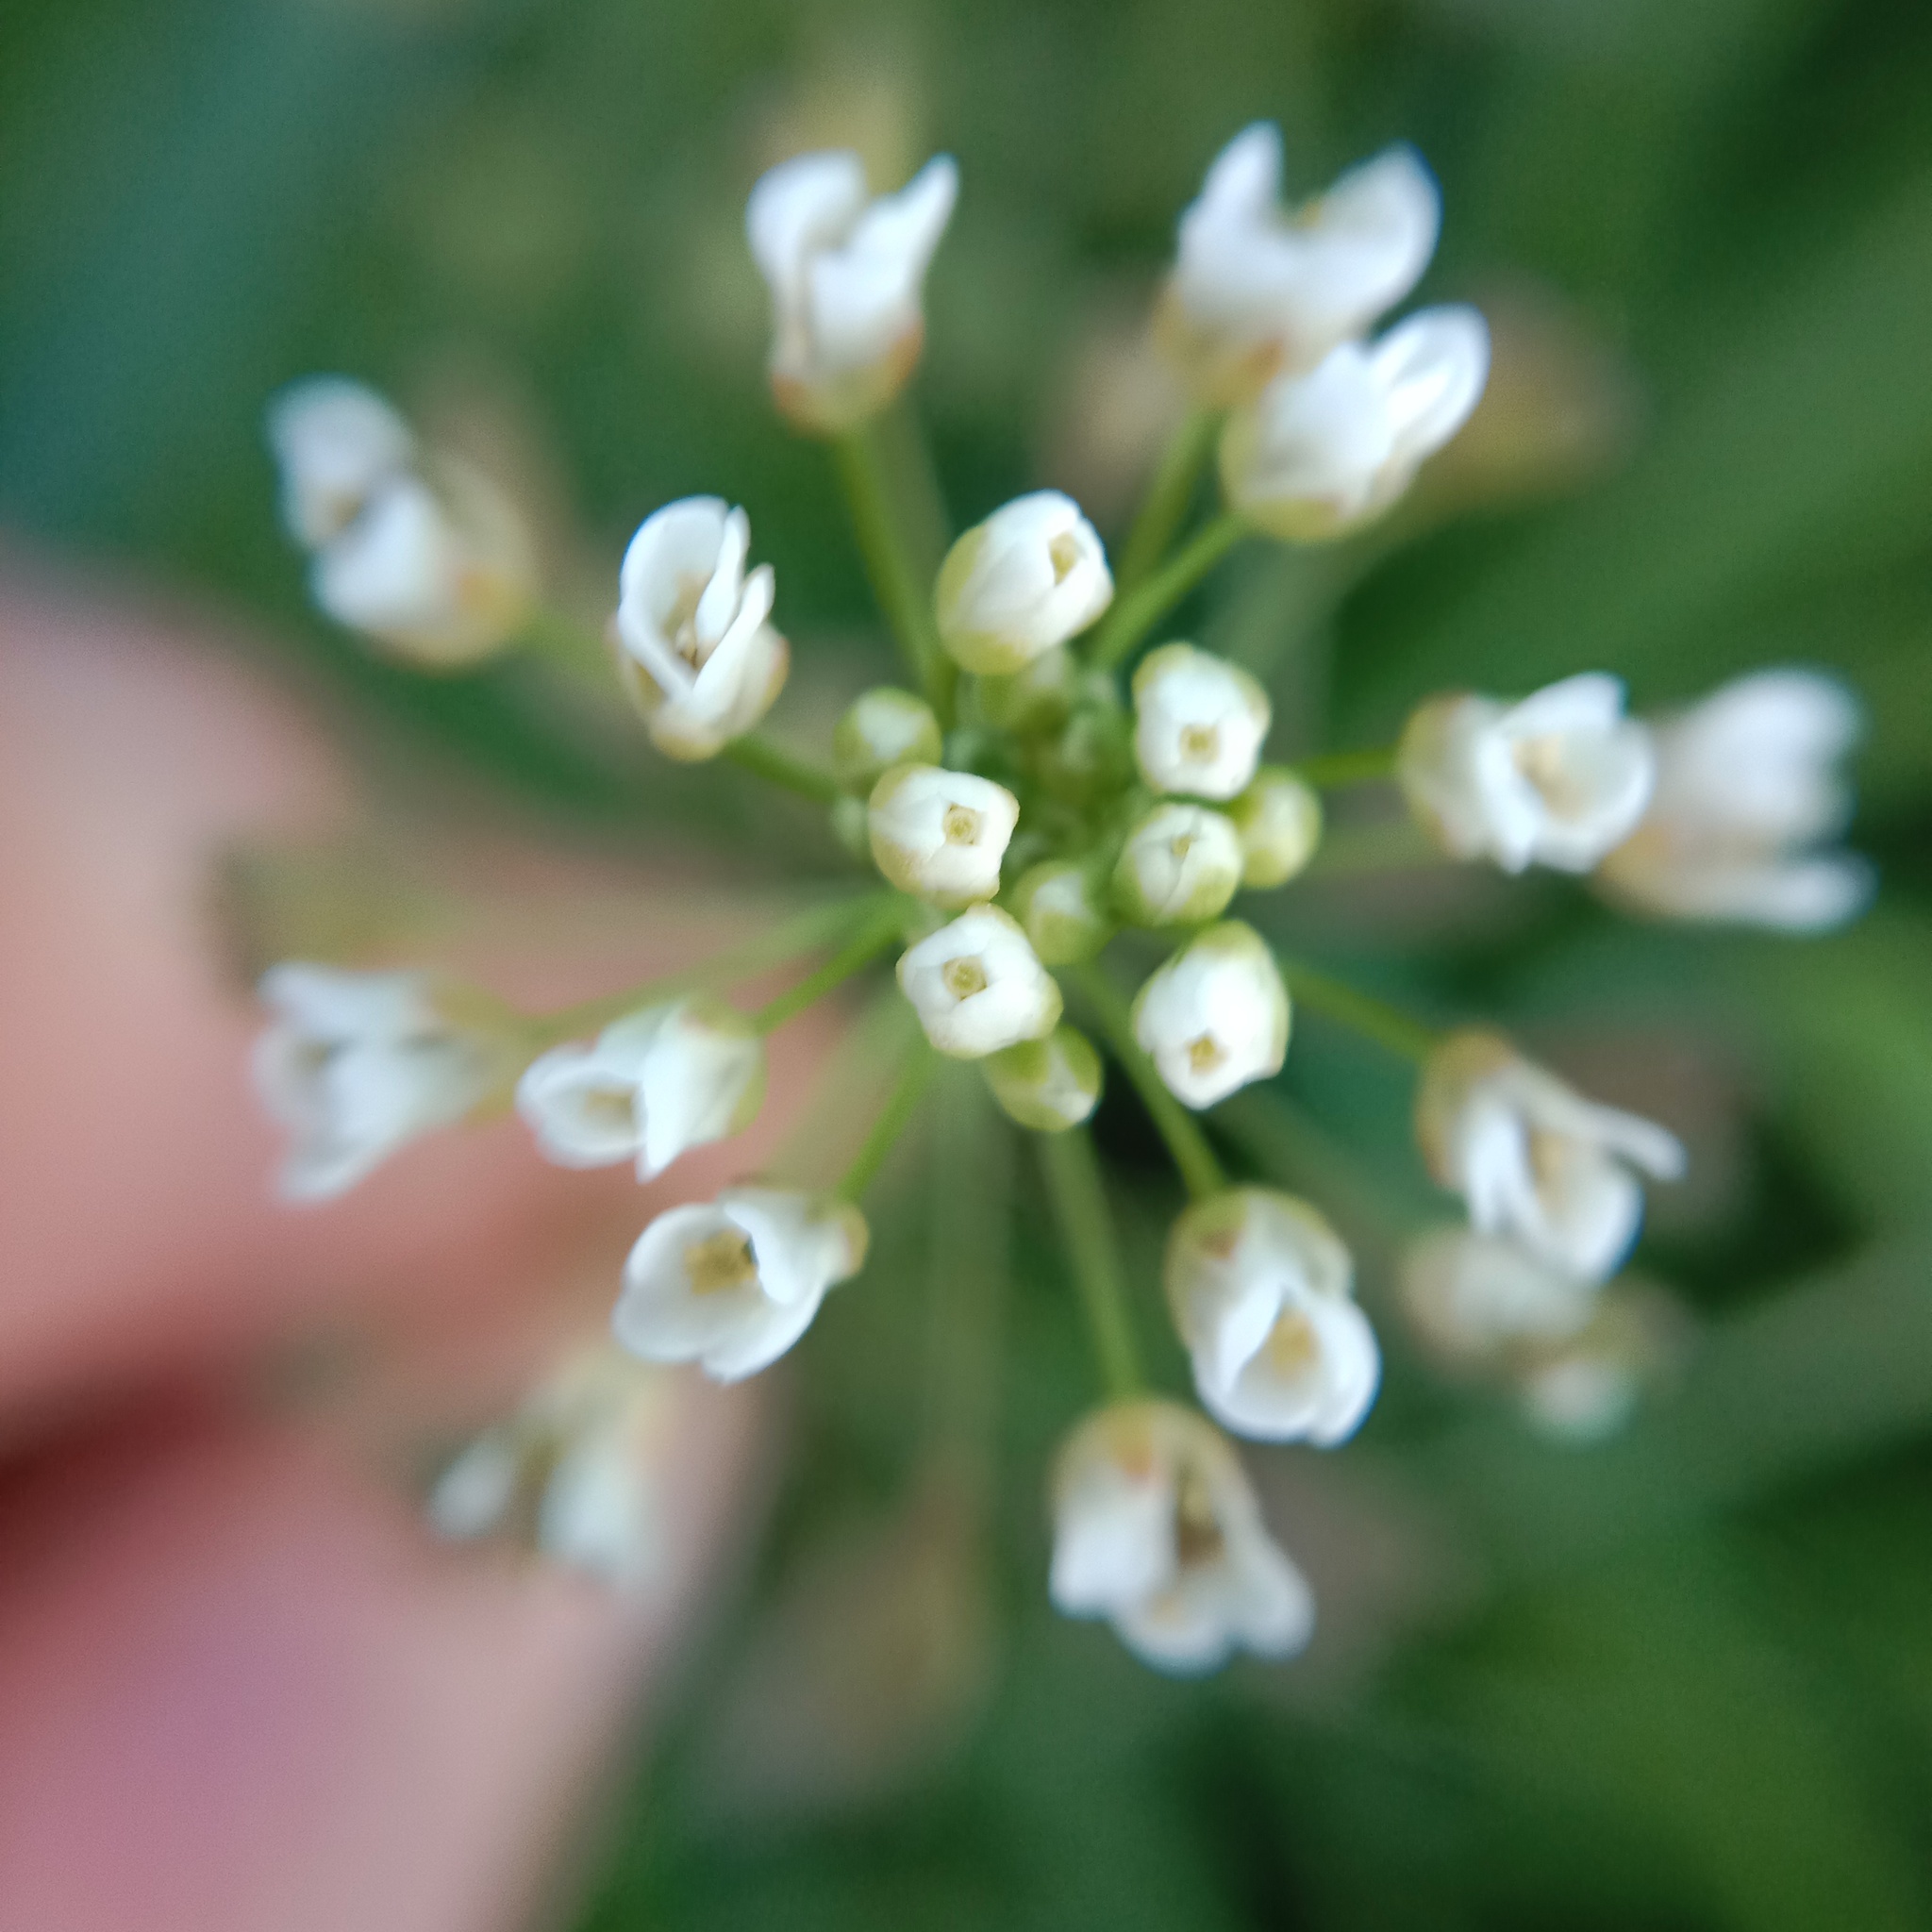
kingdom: Plantae
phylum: Tracheophyta
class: Magnoliopsida
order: Brassicales
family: Brassicaceae
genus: Capsella
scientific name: Capsella bursa-pastoris
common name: Shepherd's purse
